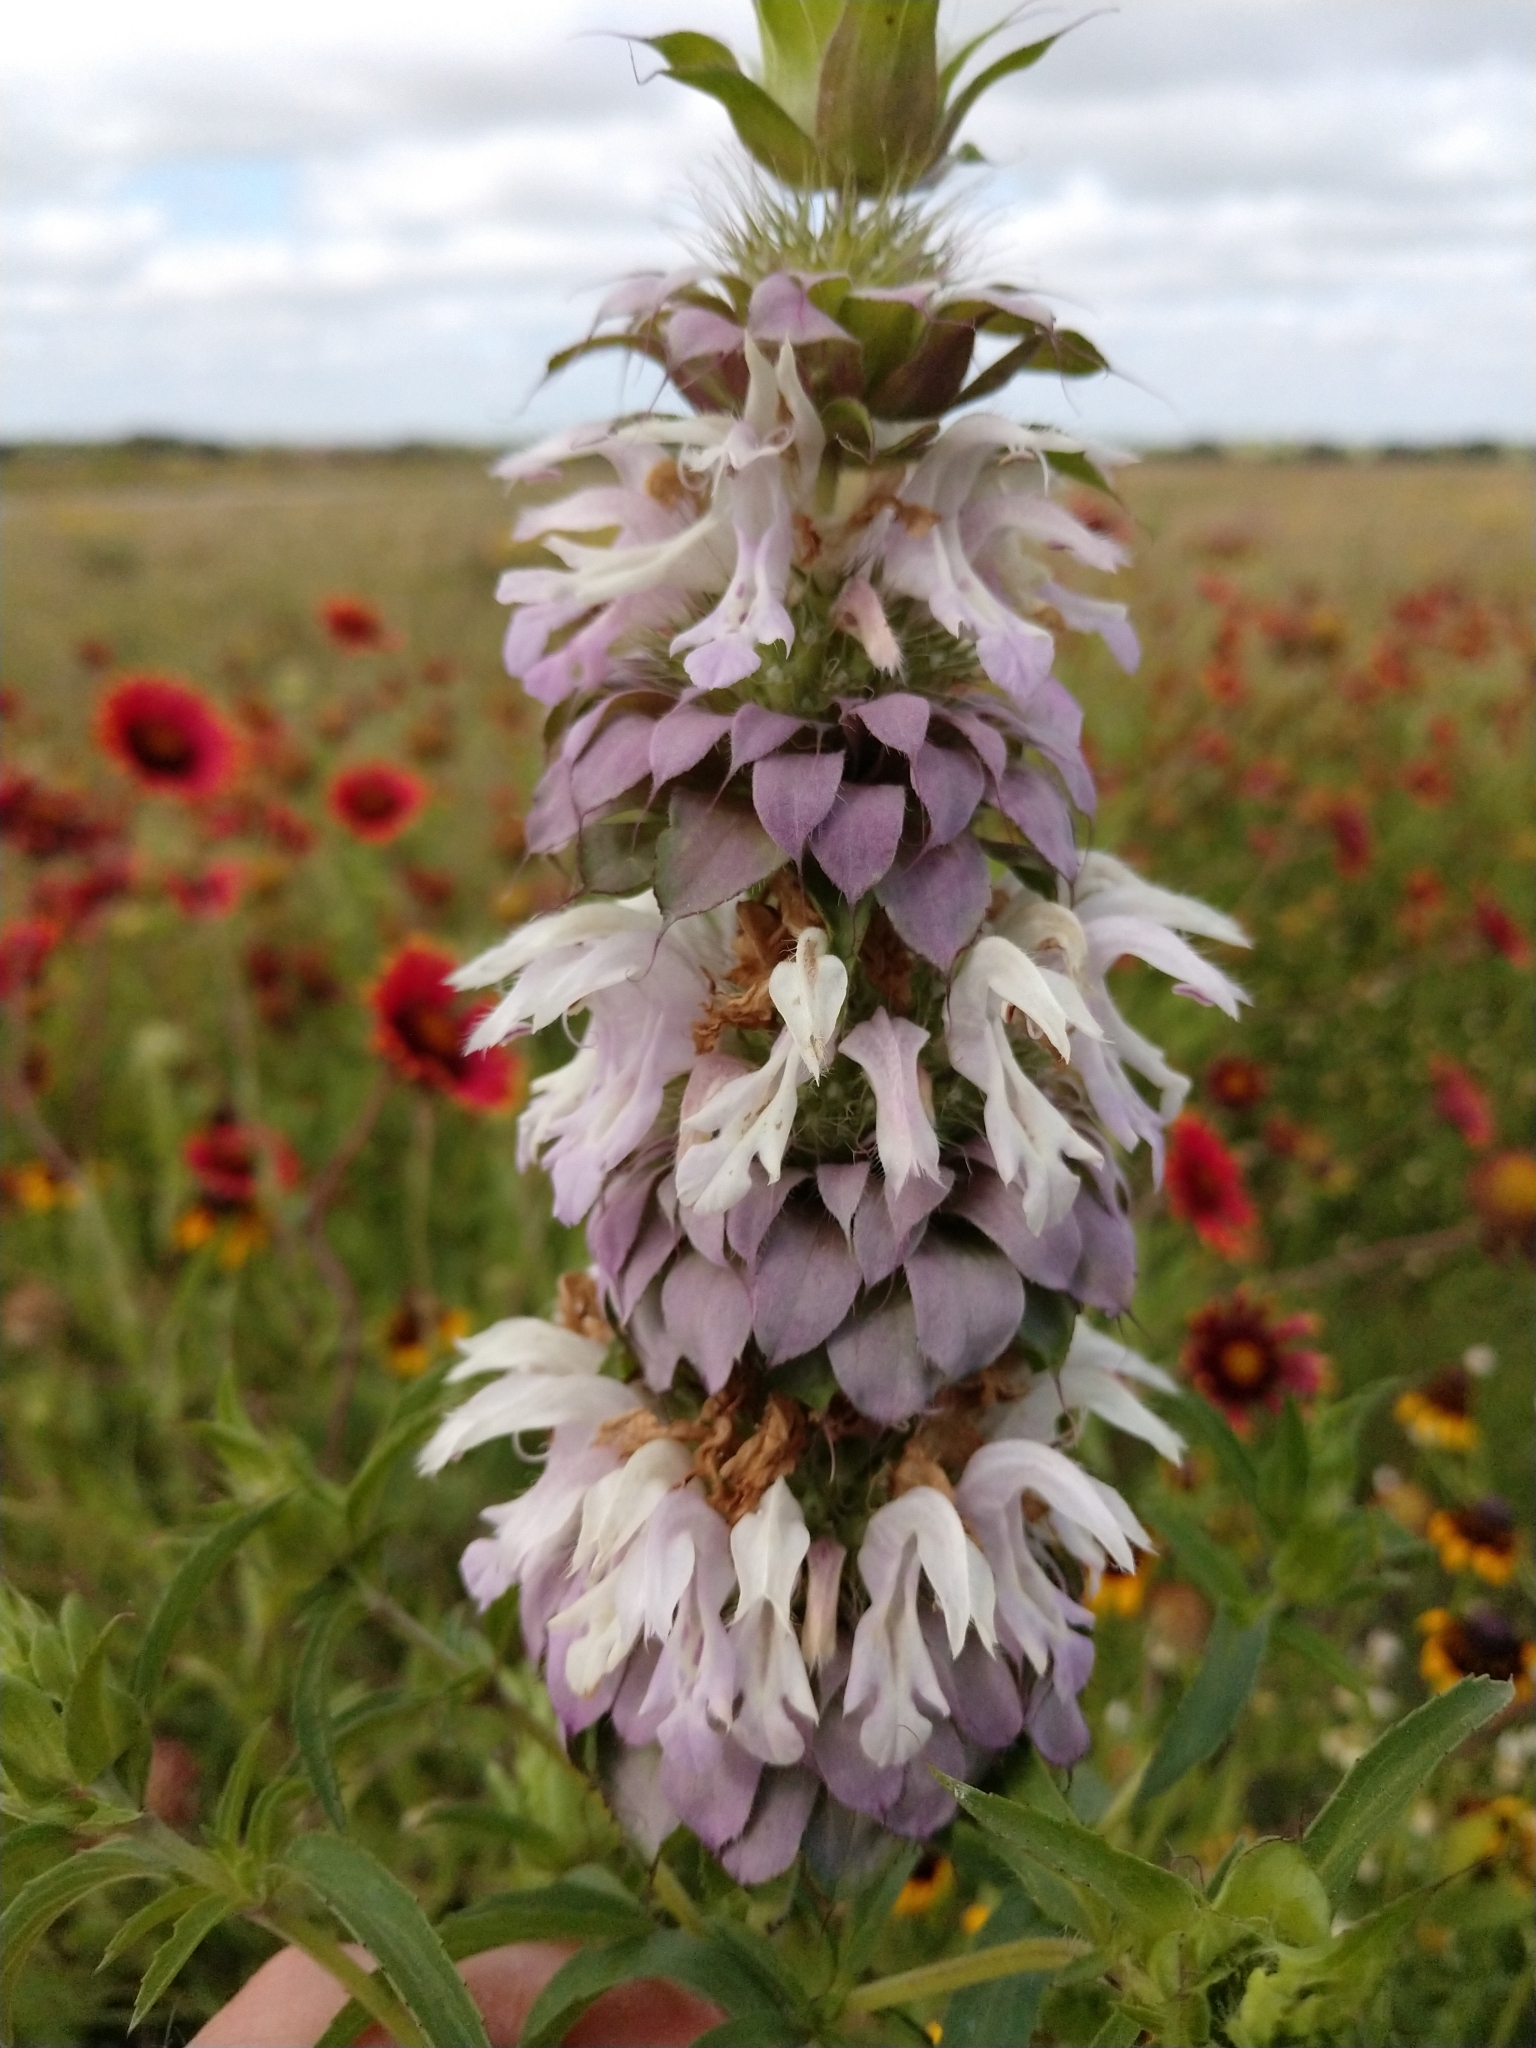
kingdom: Plantae
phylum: Tracheophyta
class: Magnoliopsida
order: Lamiales
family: Lamiaceae
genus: Monarda
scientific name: Monarda citriodora
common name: Lemon beebalm
